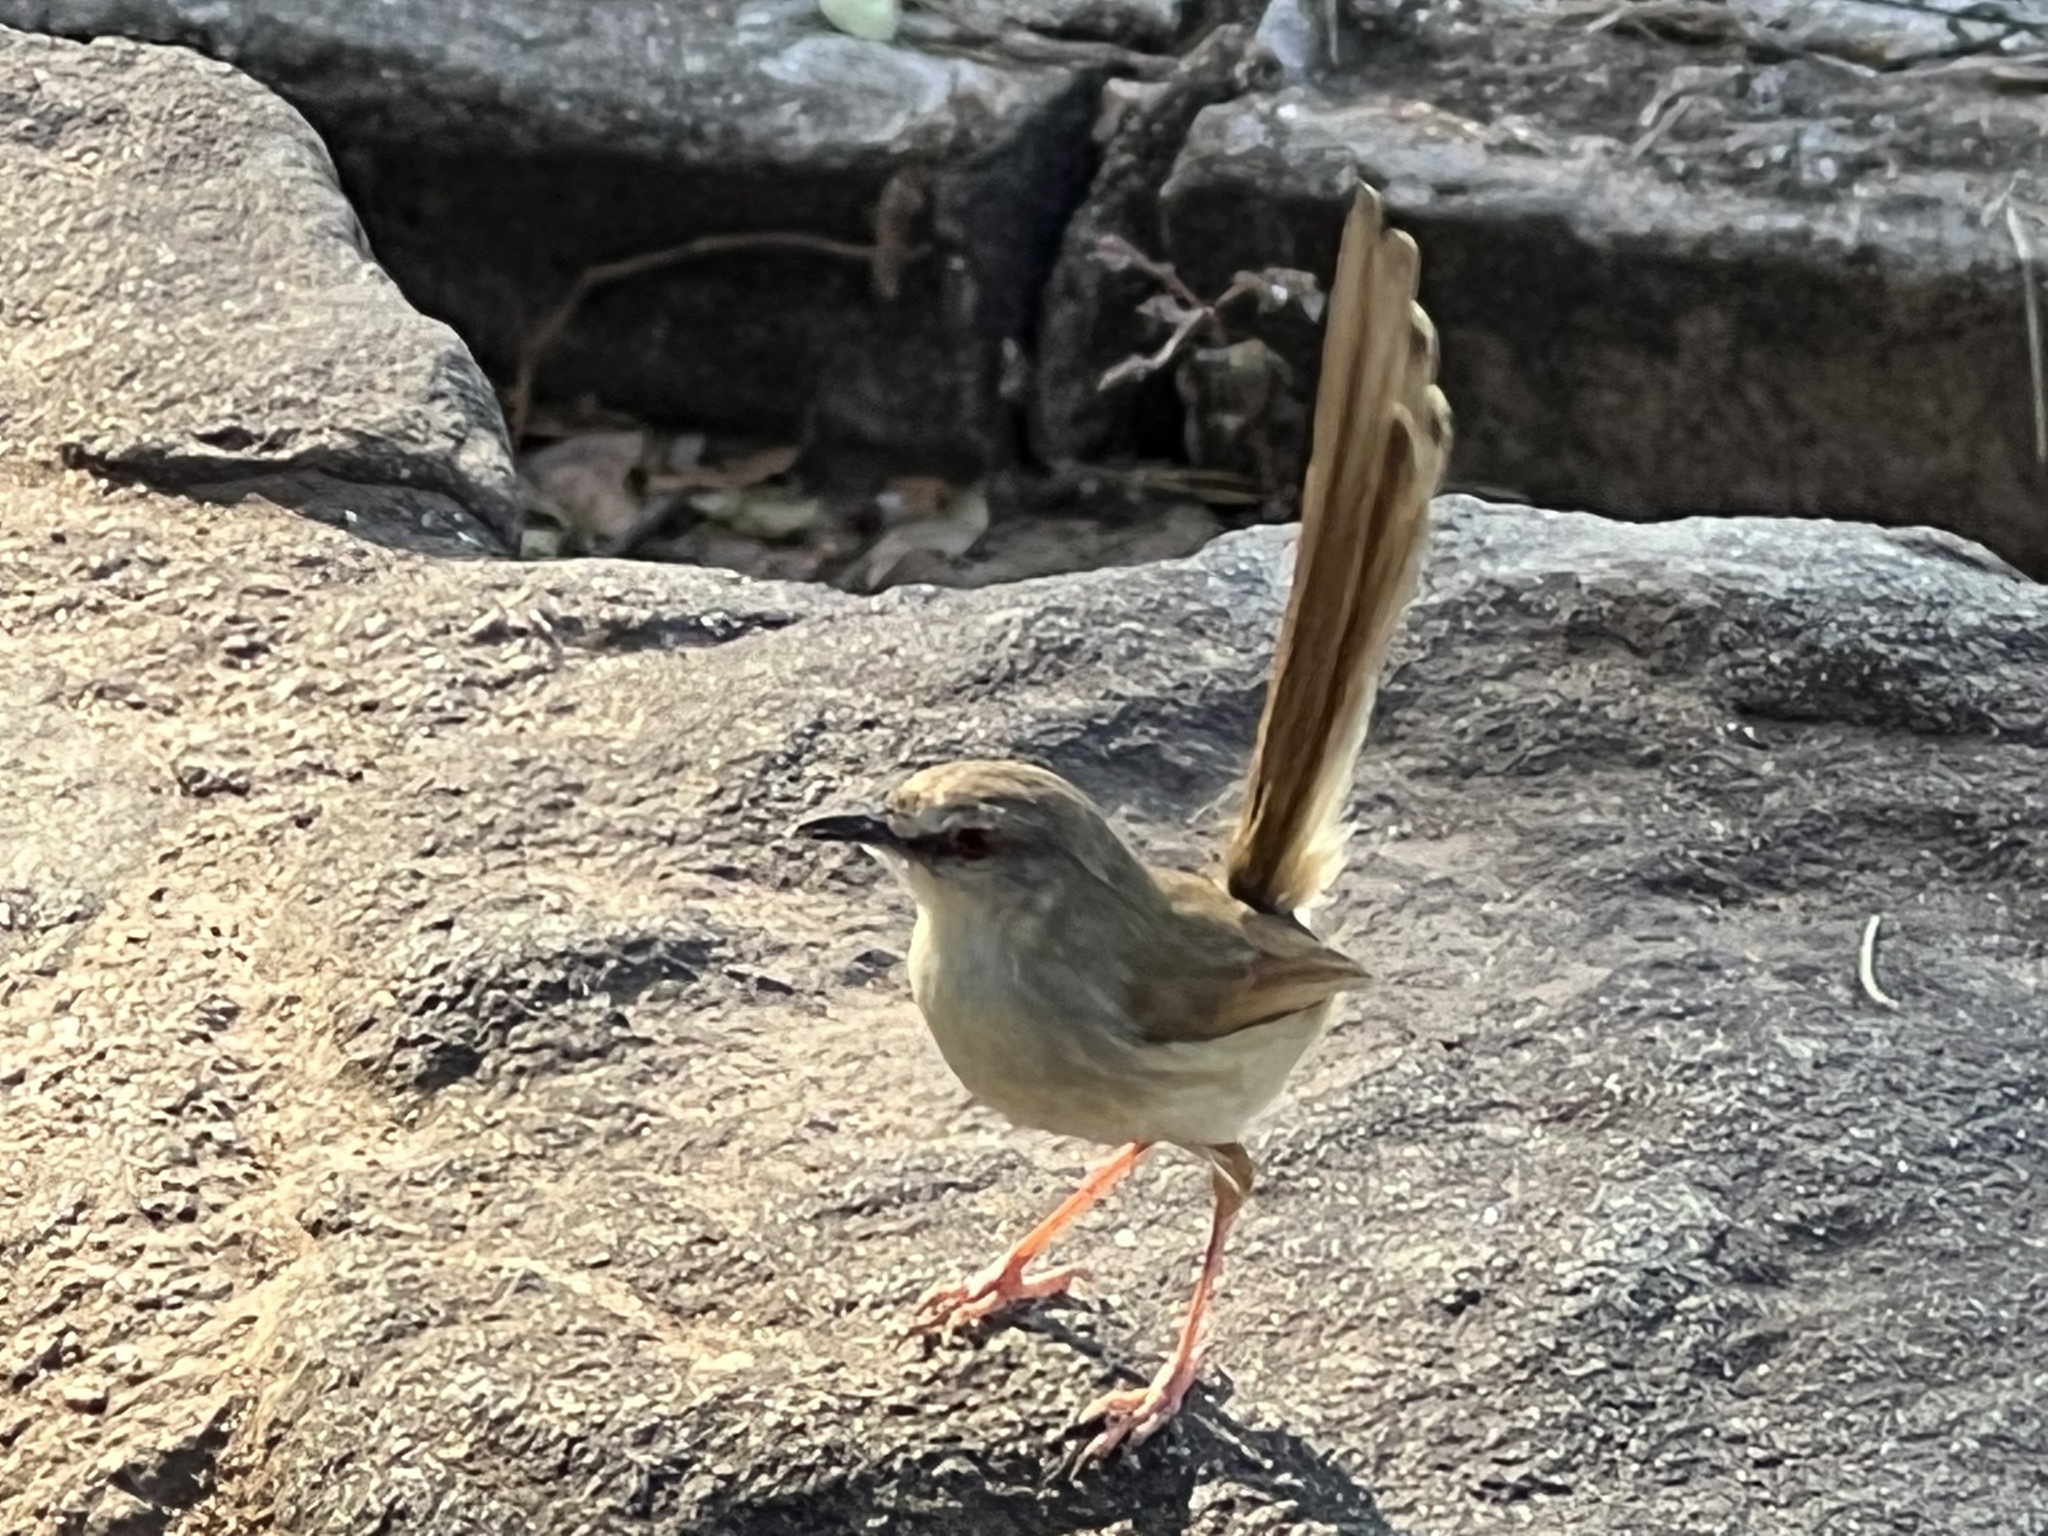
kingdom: Animalia
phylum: Chordata
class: Aves
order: Passeriformes
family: Cisticolidae
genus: Prinia
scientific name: Prinia subflava
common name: Tawny-flanked prinia
